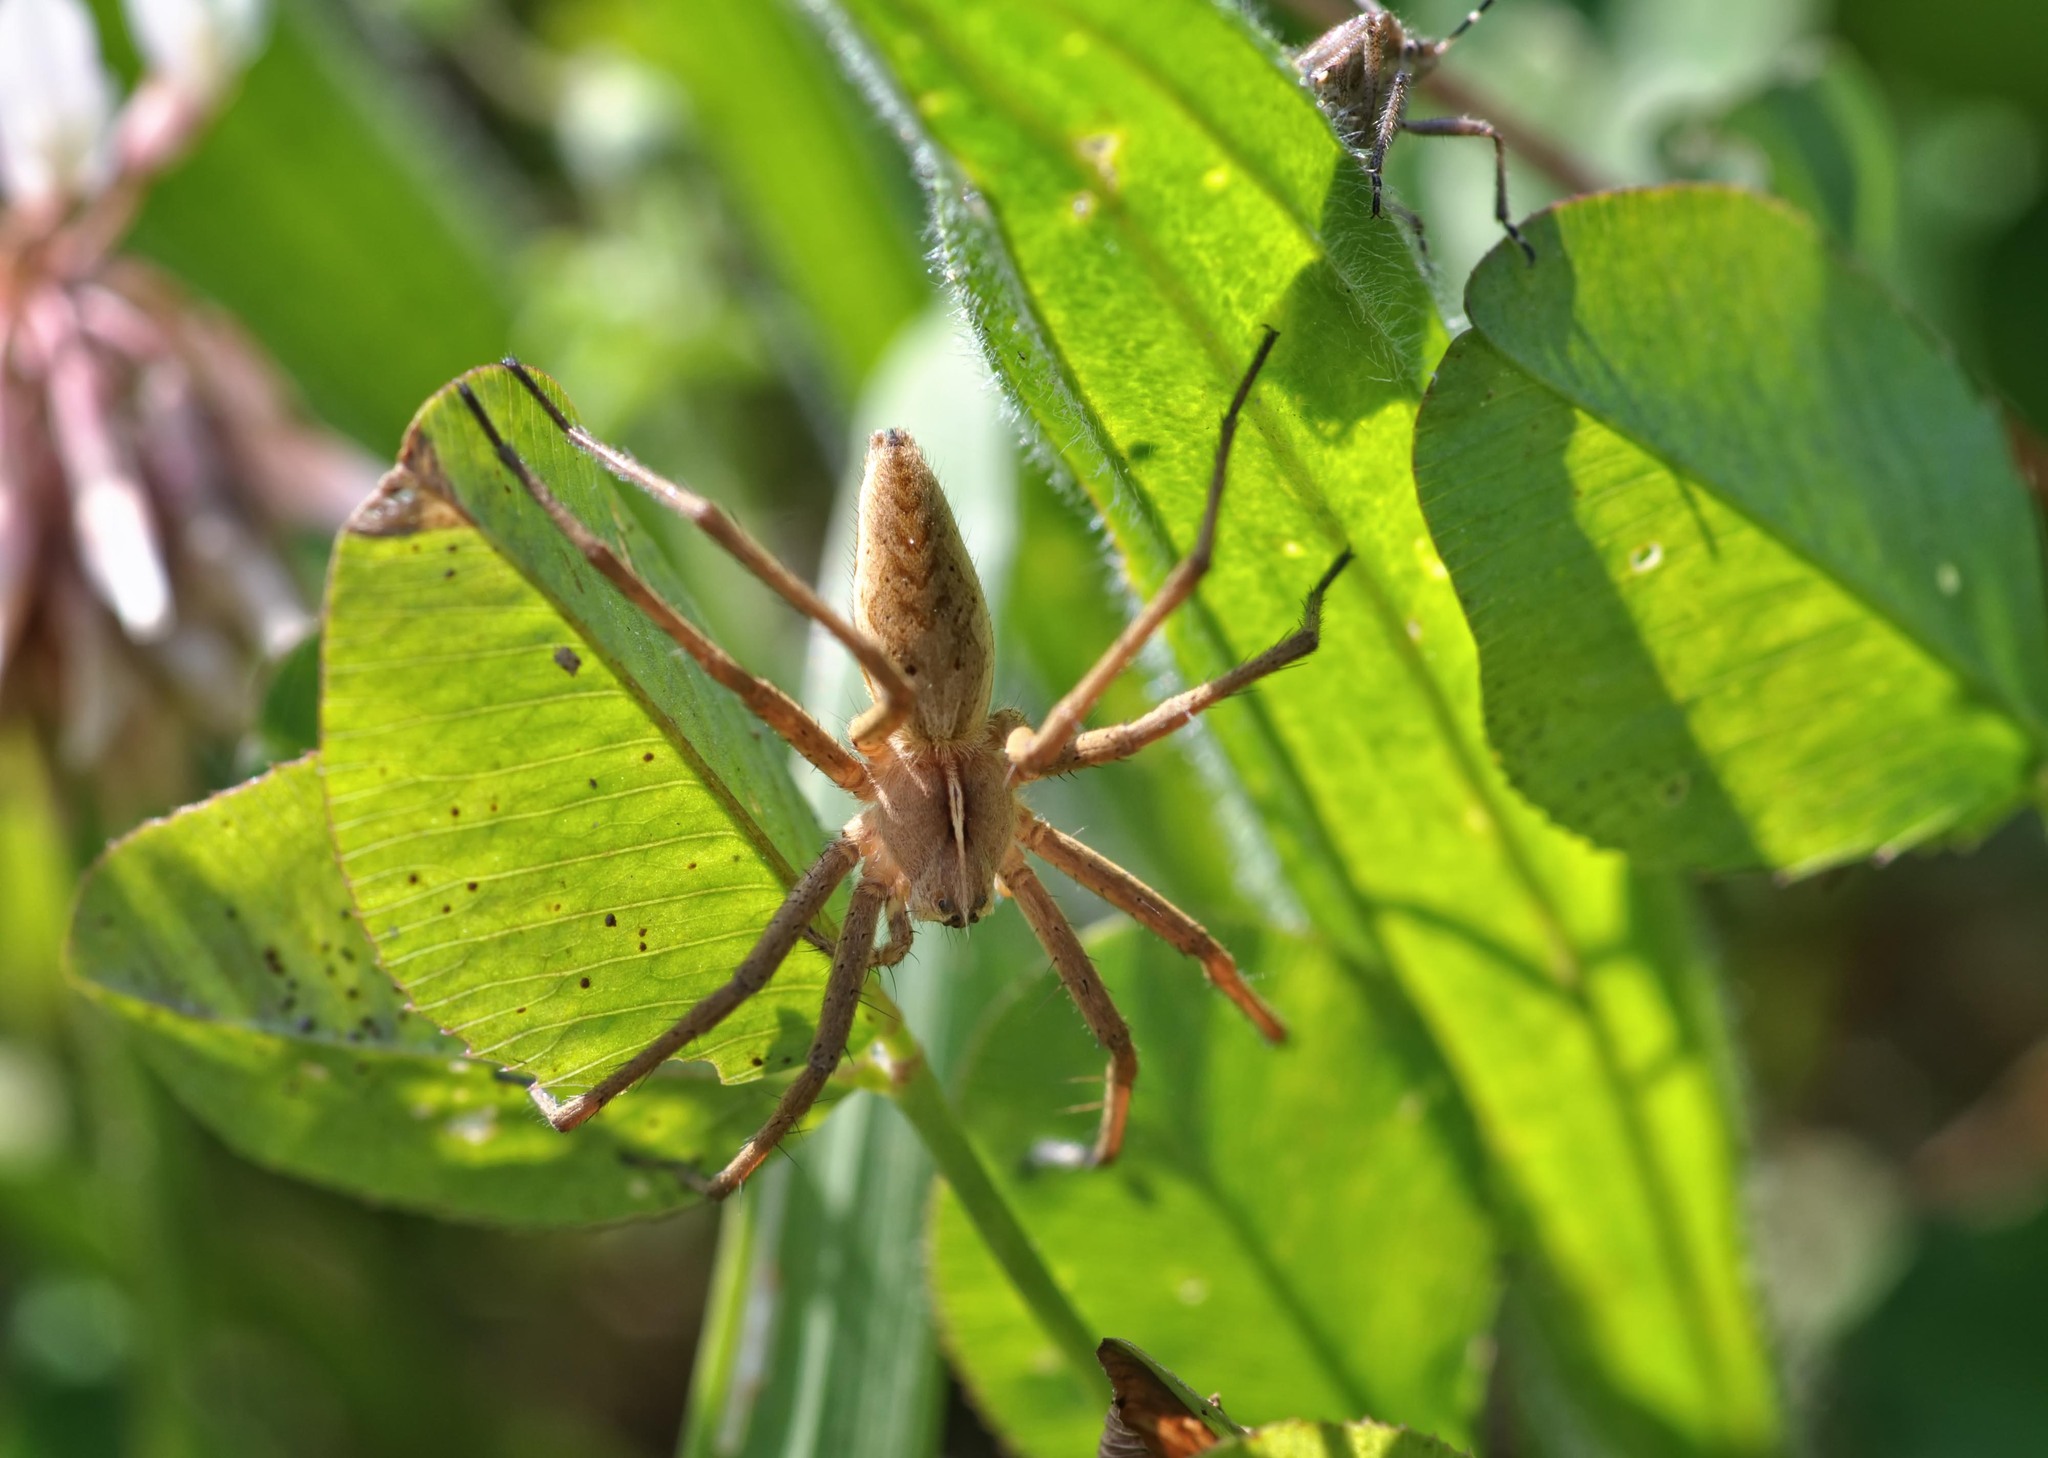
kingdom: Animalia
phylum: Arthropoda
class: Arachnida
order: Araneae
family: Pisauridae
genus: Pisaura
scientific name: Pisaura mirabilis
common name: Tent spider
